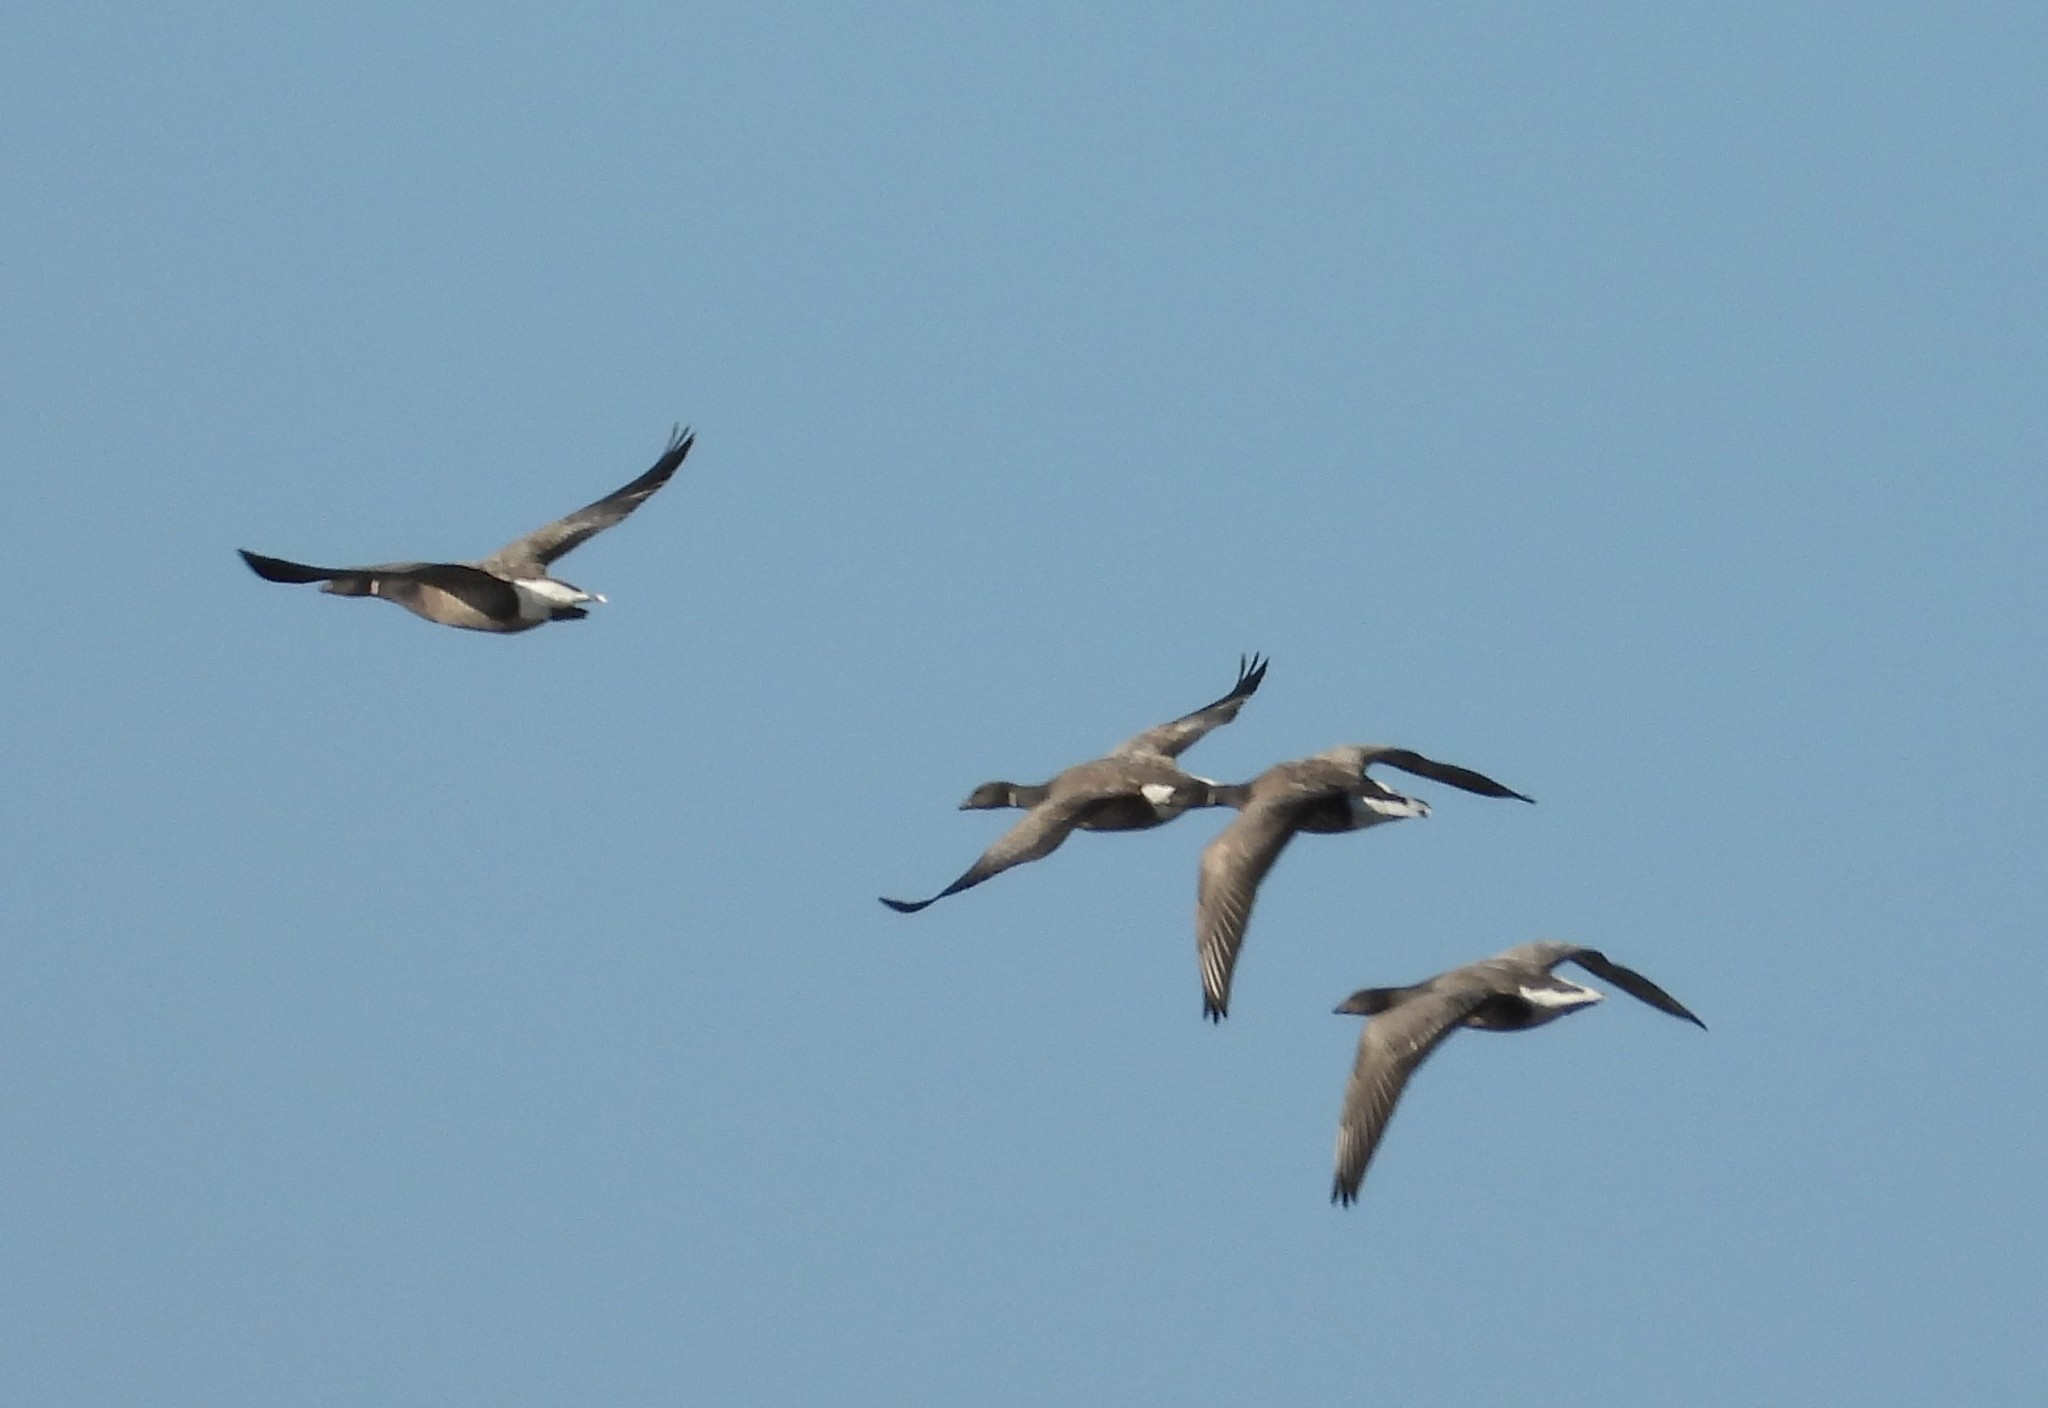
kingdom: Animalia
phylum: Chordata
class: Aves
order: Anseriformes
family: Anatidae
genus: Branta
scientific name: Branta bernicla
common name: Brant goose
